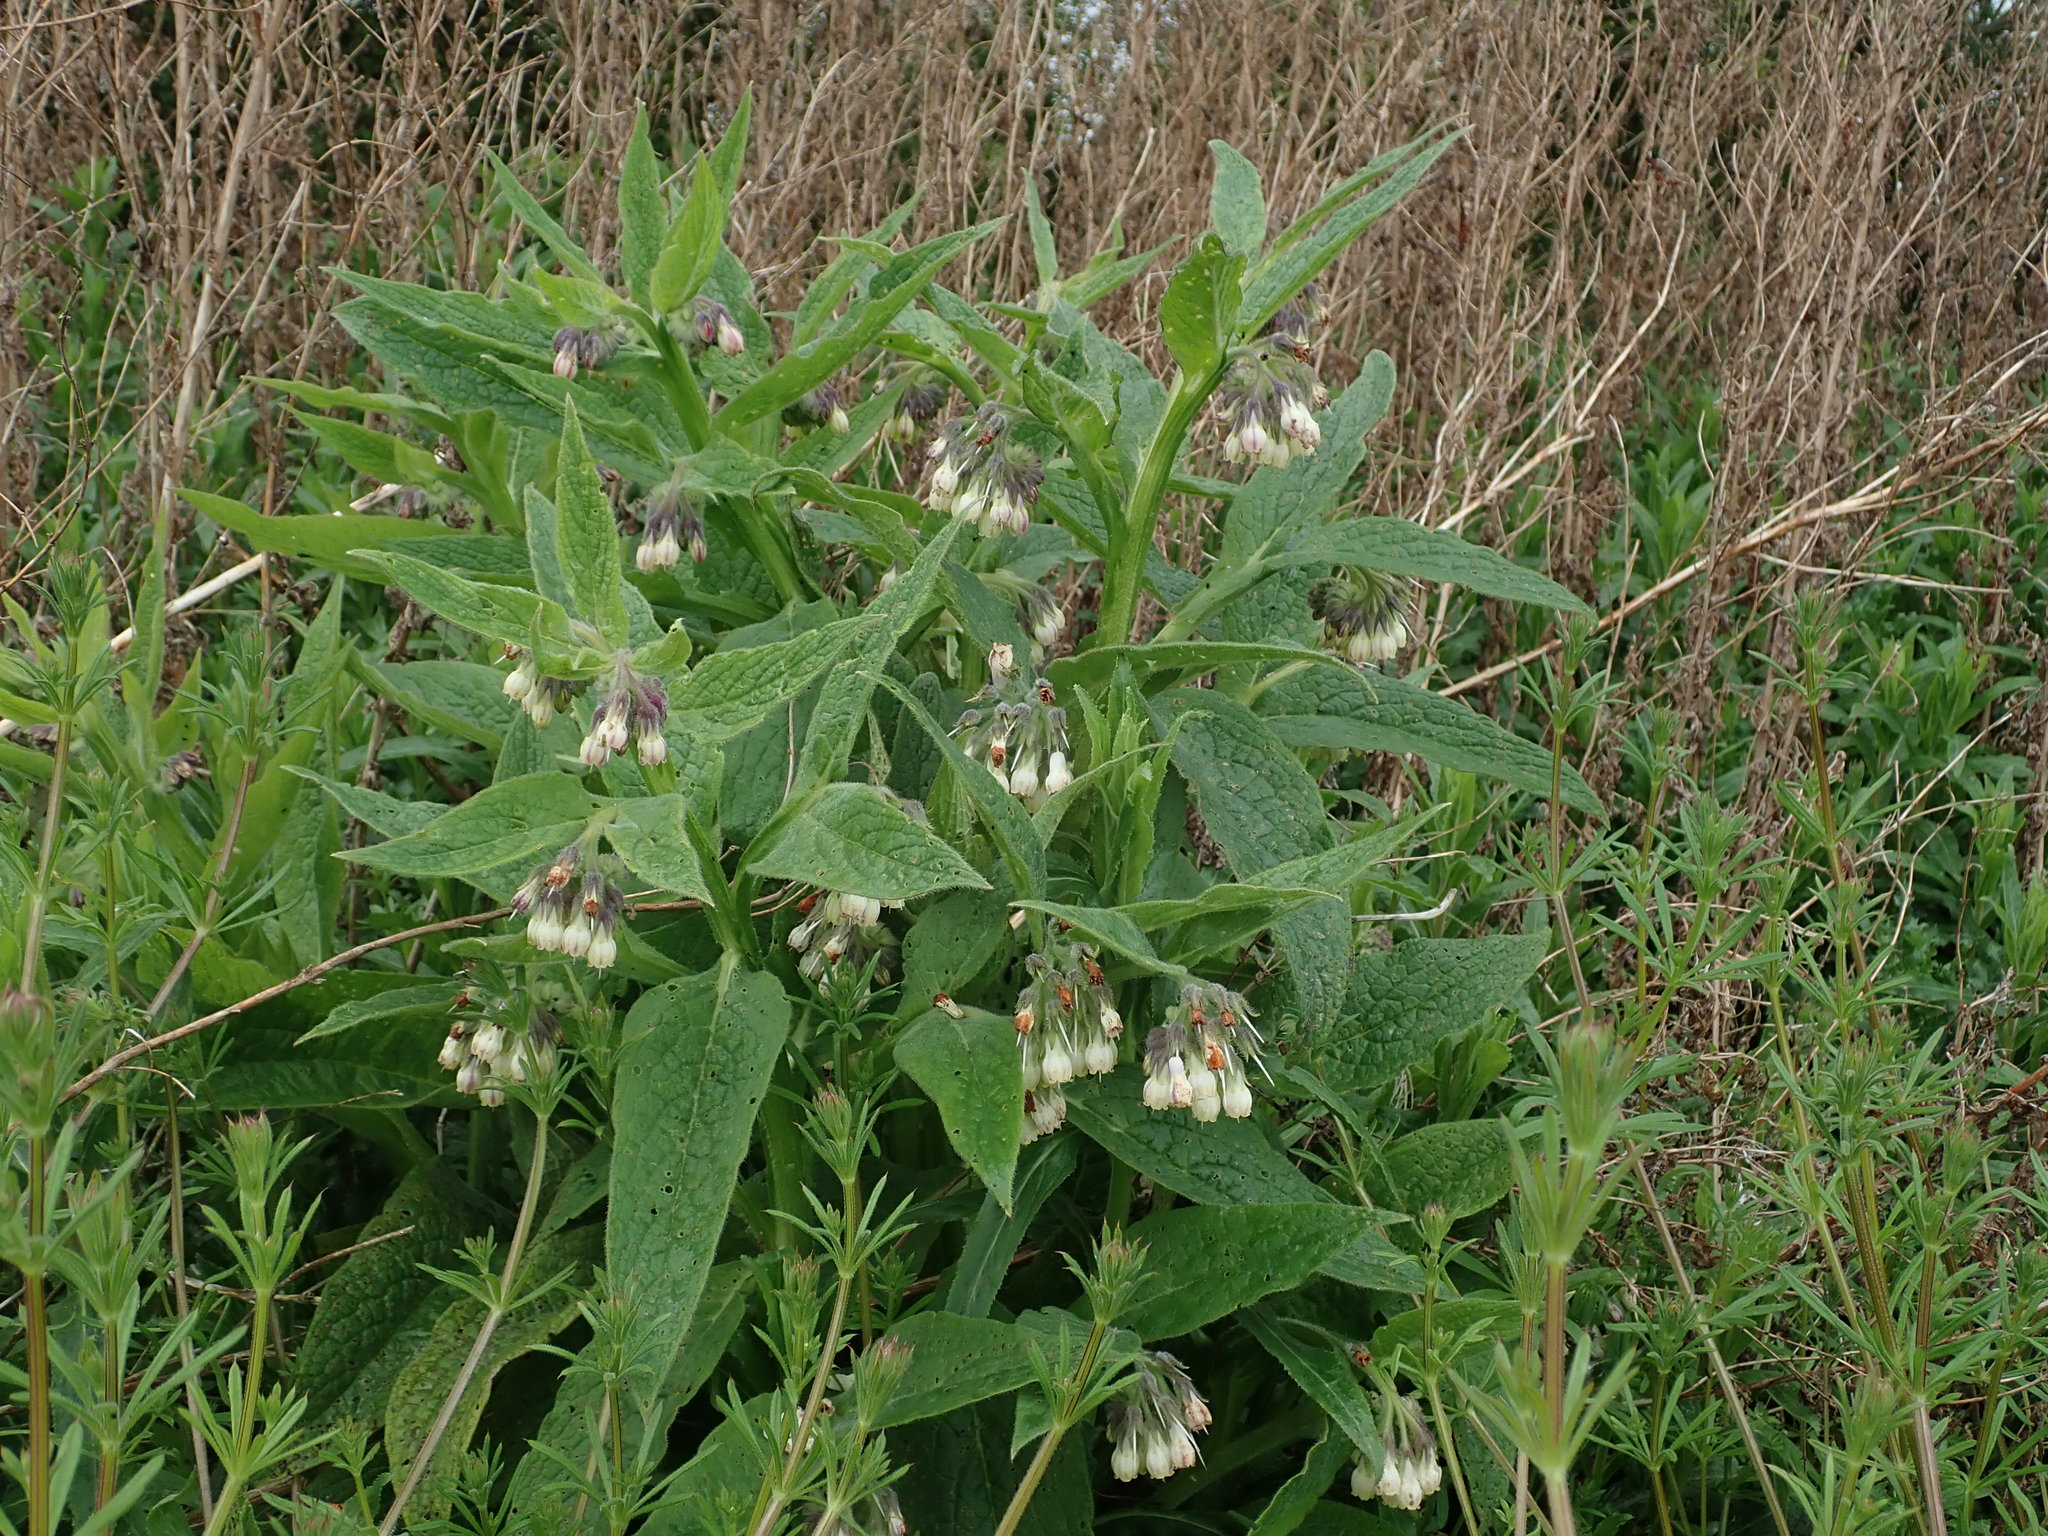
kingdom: Plantae
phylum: Tracheophyta
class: Magnoliopsida
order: Boraginales
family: Boraginaceae
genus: Symphytum
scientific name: Symphytum officinale
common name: Common comfrey
